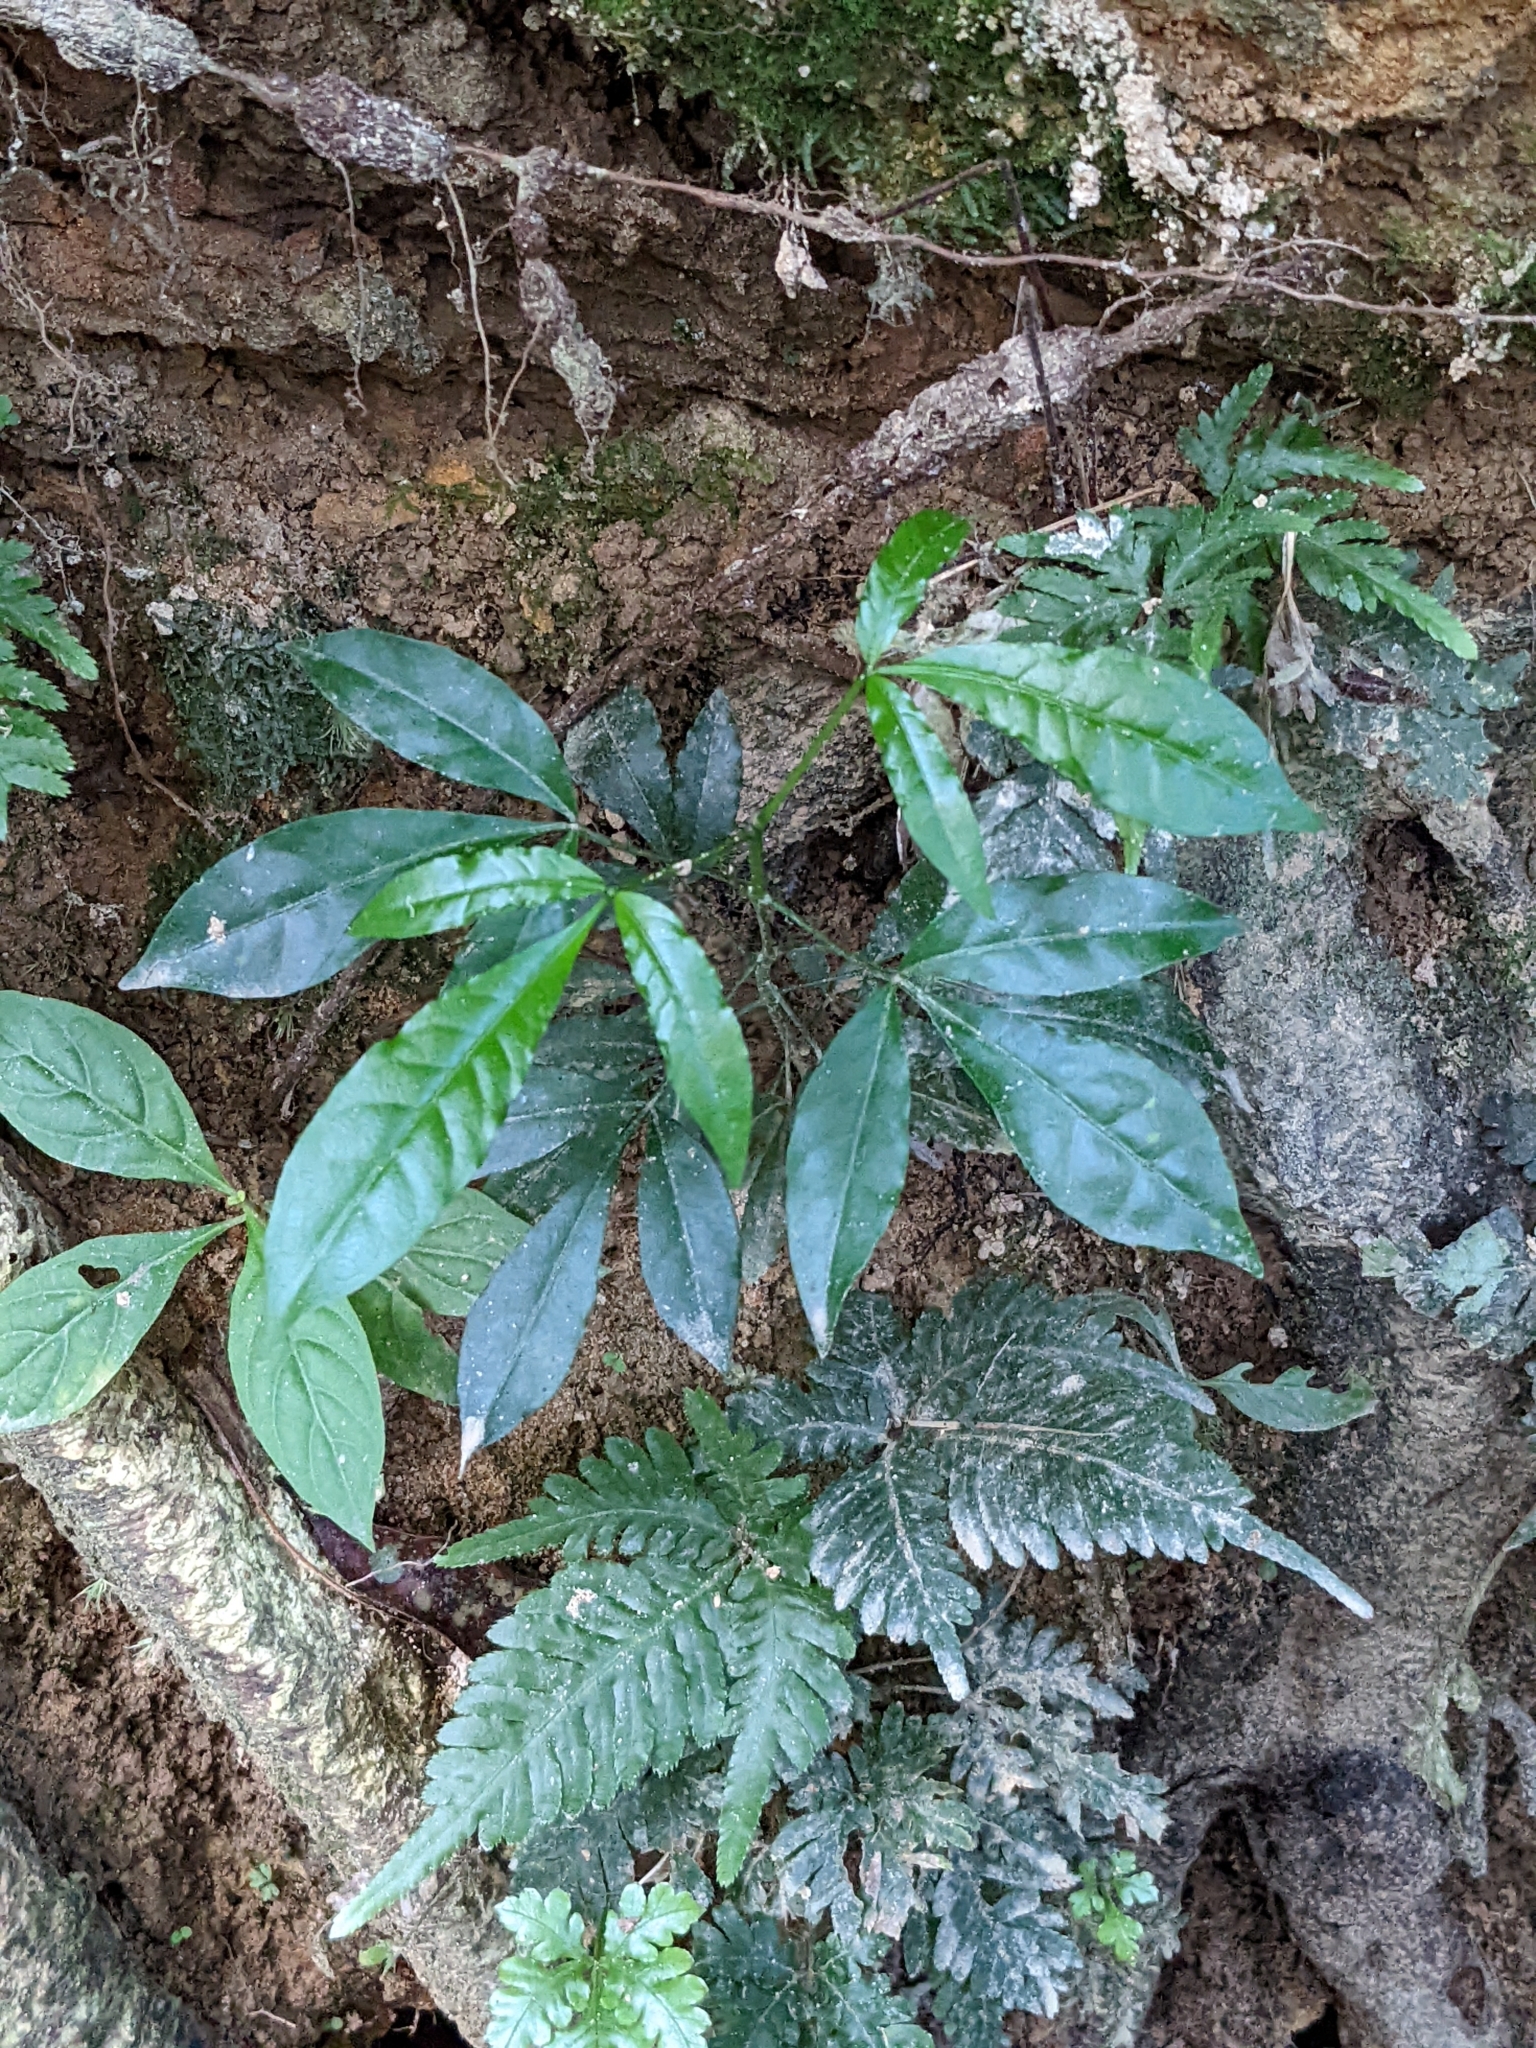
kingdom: Plantae
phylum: Tracheophyta
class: Magnoliopsida
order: Sapindales
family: Rutaceae
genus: Melicope
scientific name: Melicope pteleifolia
